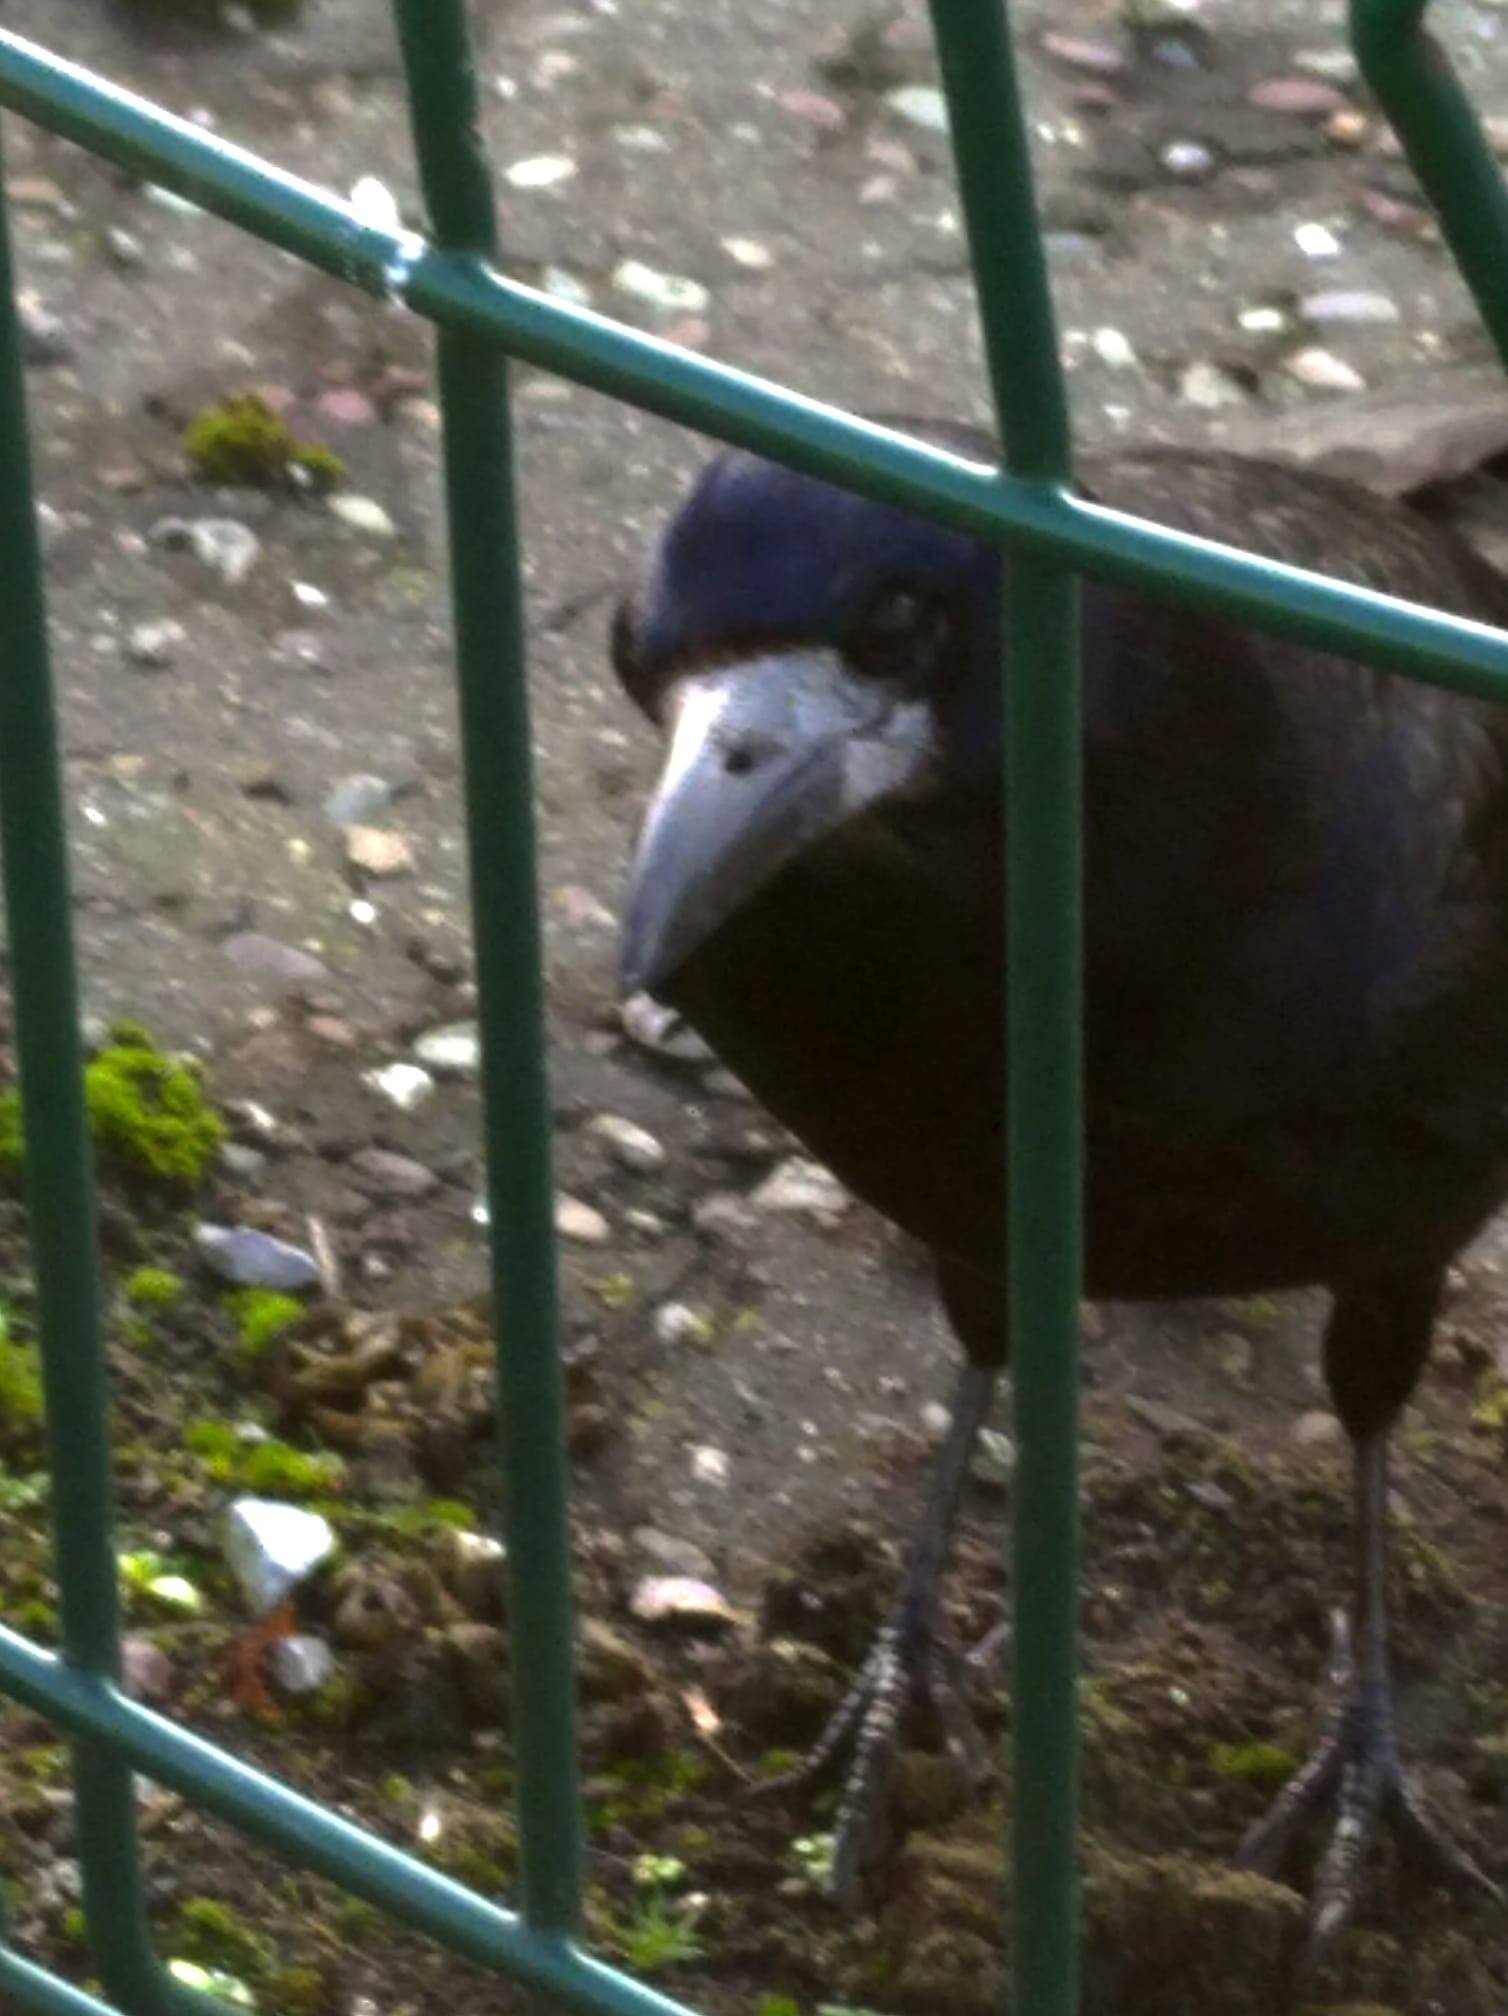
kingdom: Animalia
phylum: Chordata
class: Aves
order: Passeriformes
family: Corvidae
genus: Corvus
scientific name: Corvus frugilegus
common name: Rook
